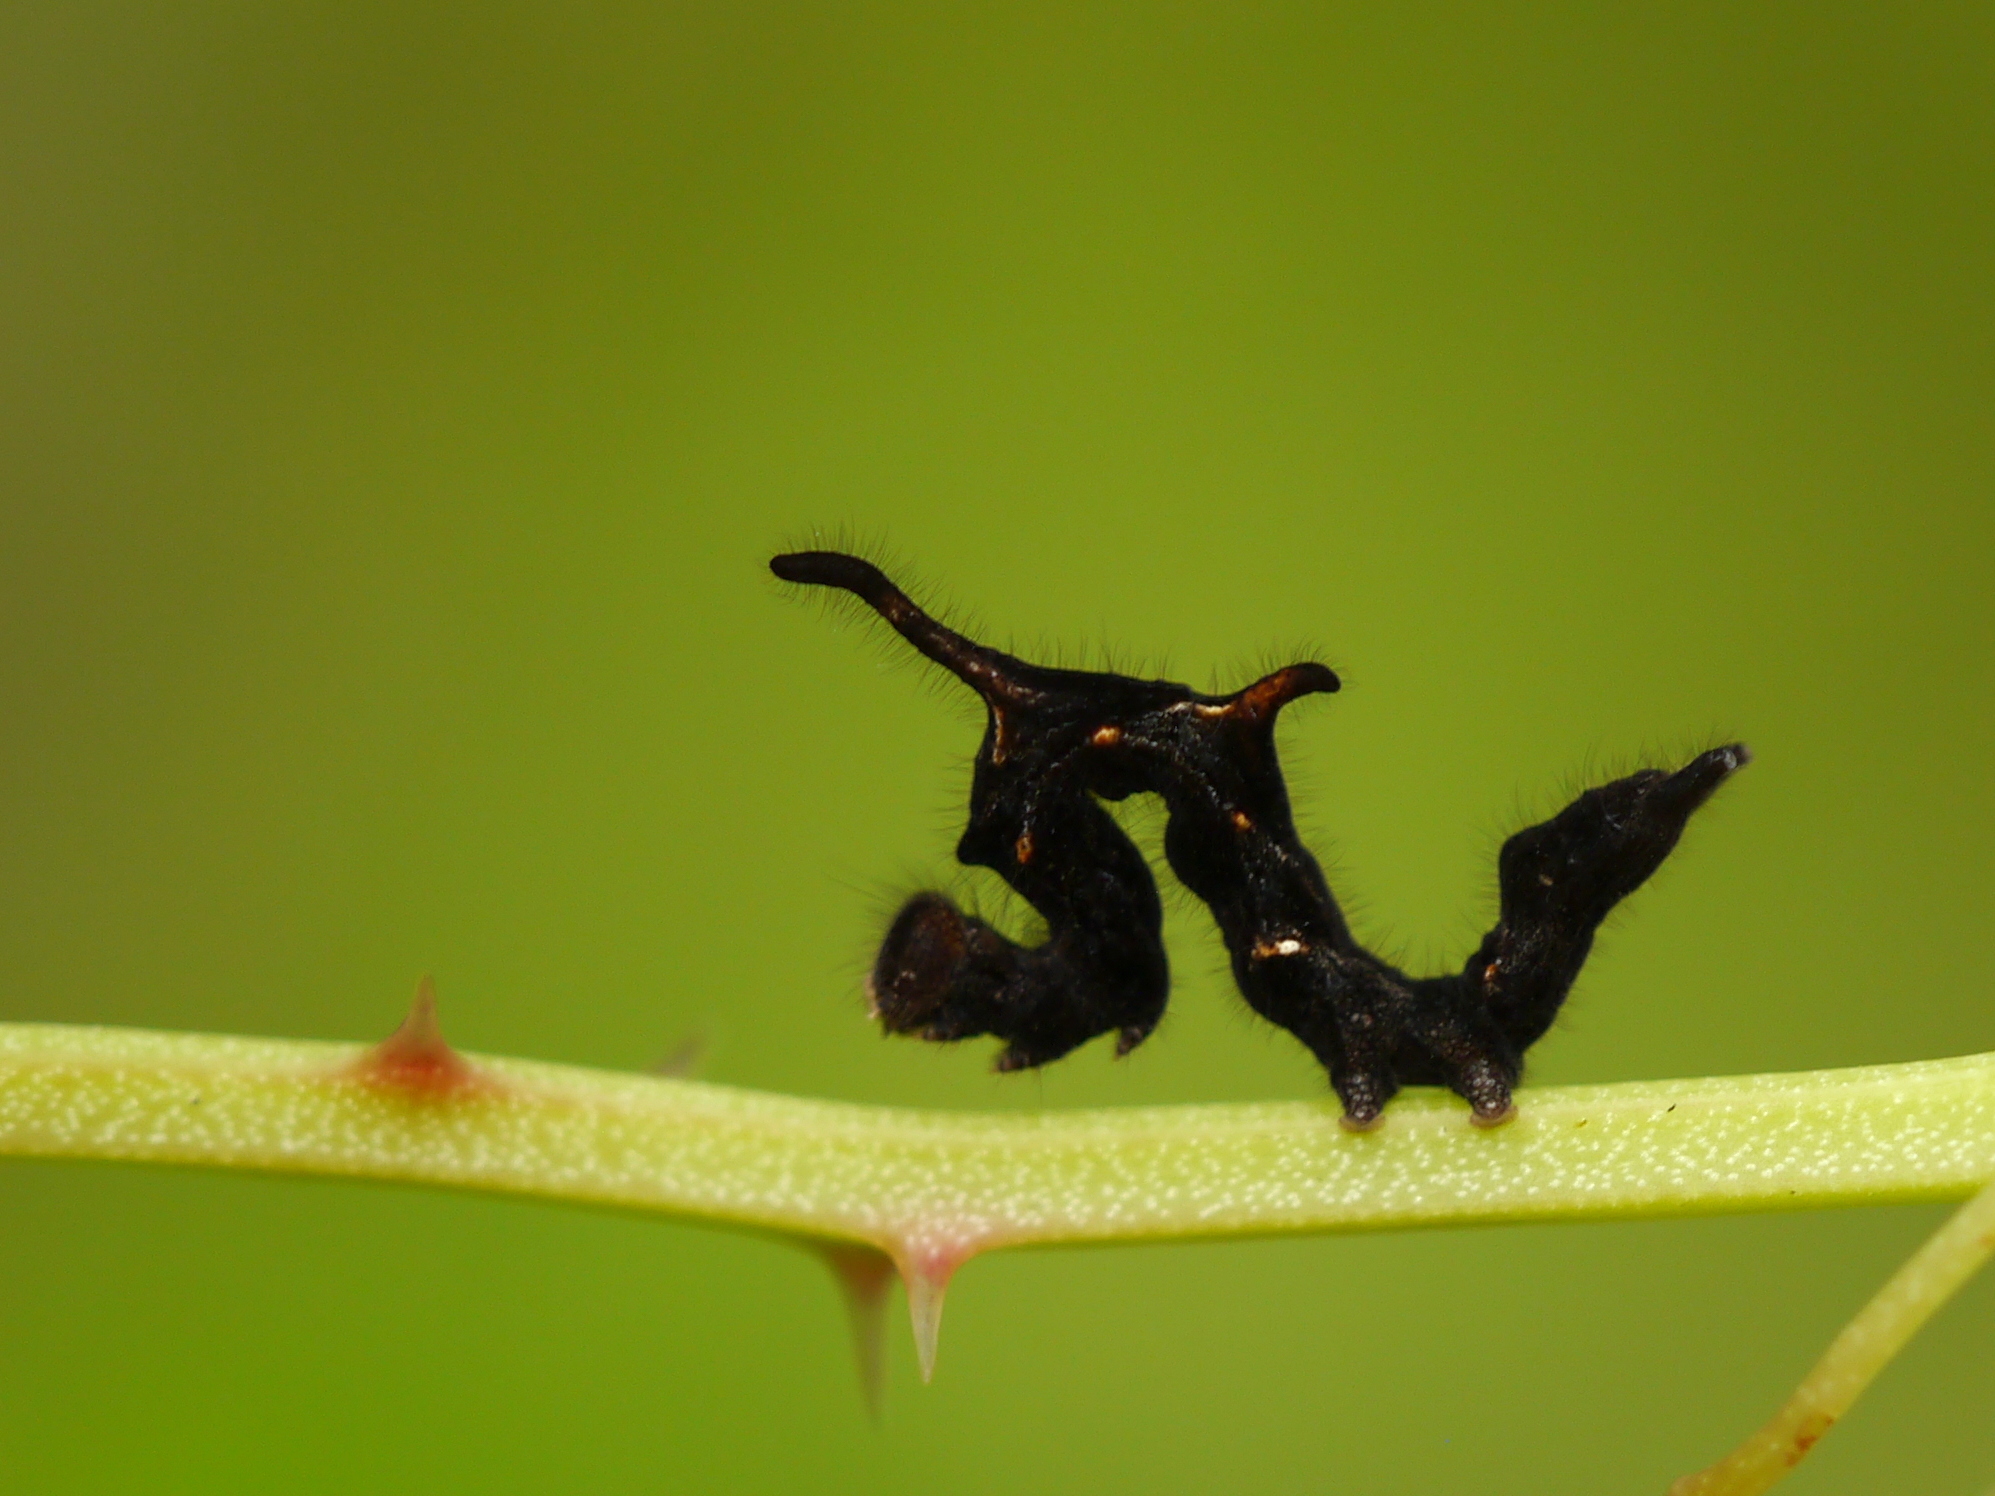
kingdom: Animalia
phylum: Arthropoda
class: Insecta
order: Lepidoptera
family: Erebidae
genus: Phyprosopus
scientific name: Phyprosopus callitrichoides
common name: Curved-lined owlet
